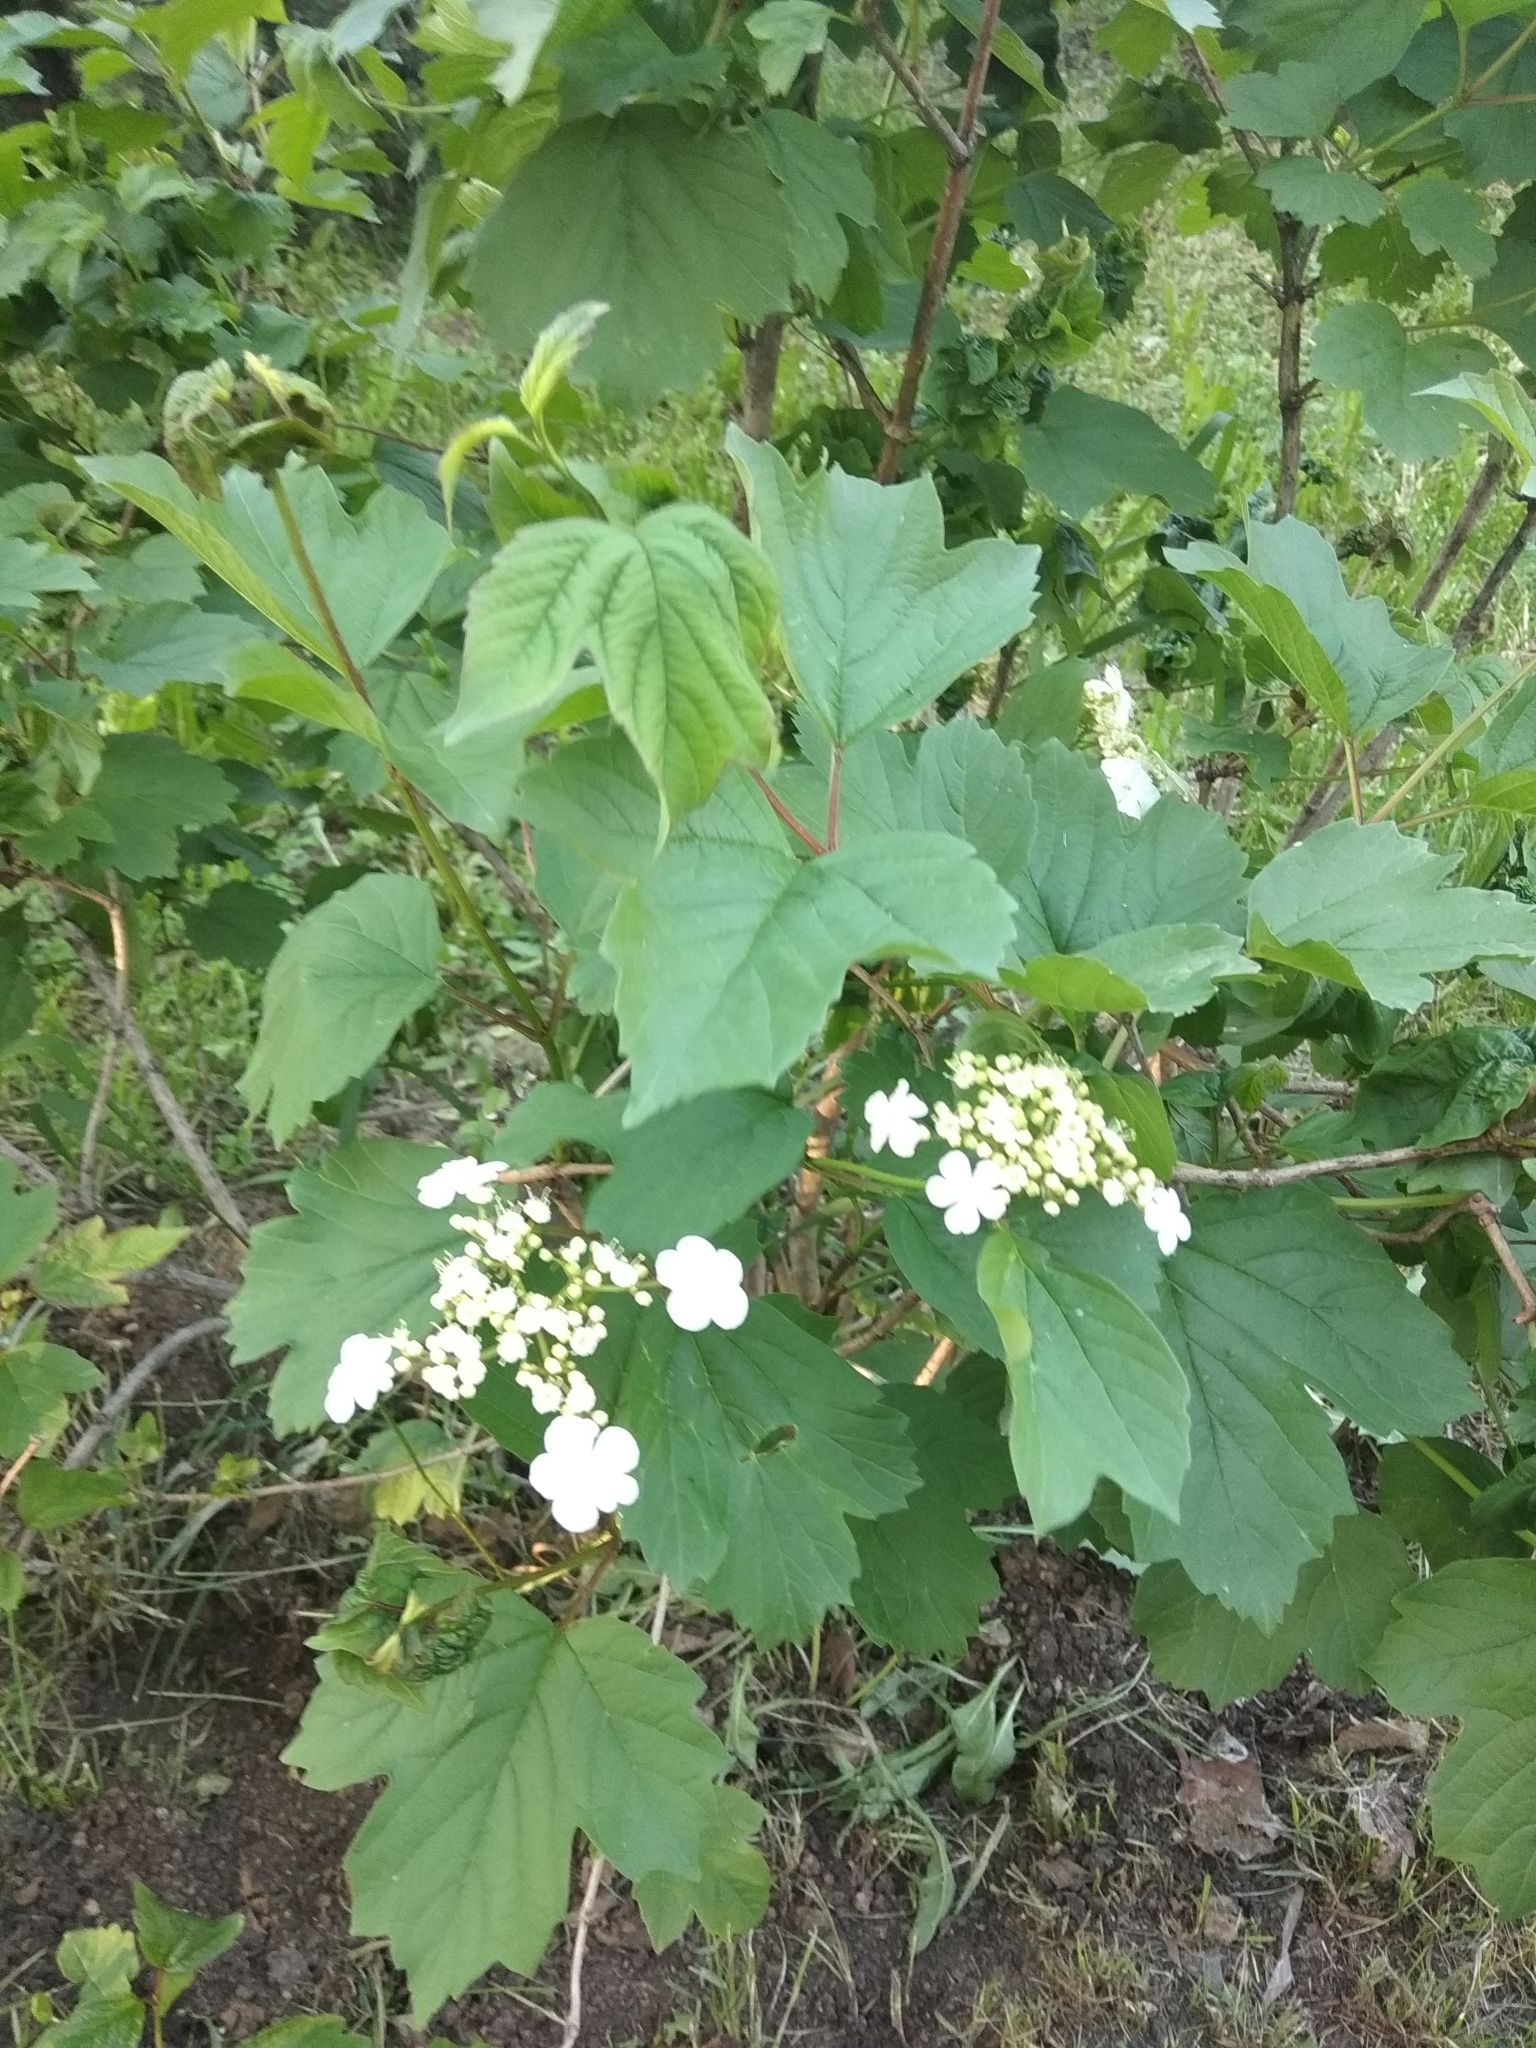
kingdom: Plantae
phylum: Tracheophyta
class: Magnoliopsida
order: Dipsacales
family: Viburnaceae
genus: Viburnum
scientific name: Viburnum opulus
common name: Guelder-rose
